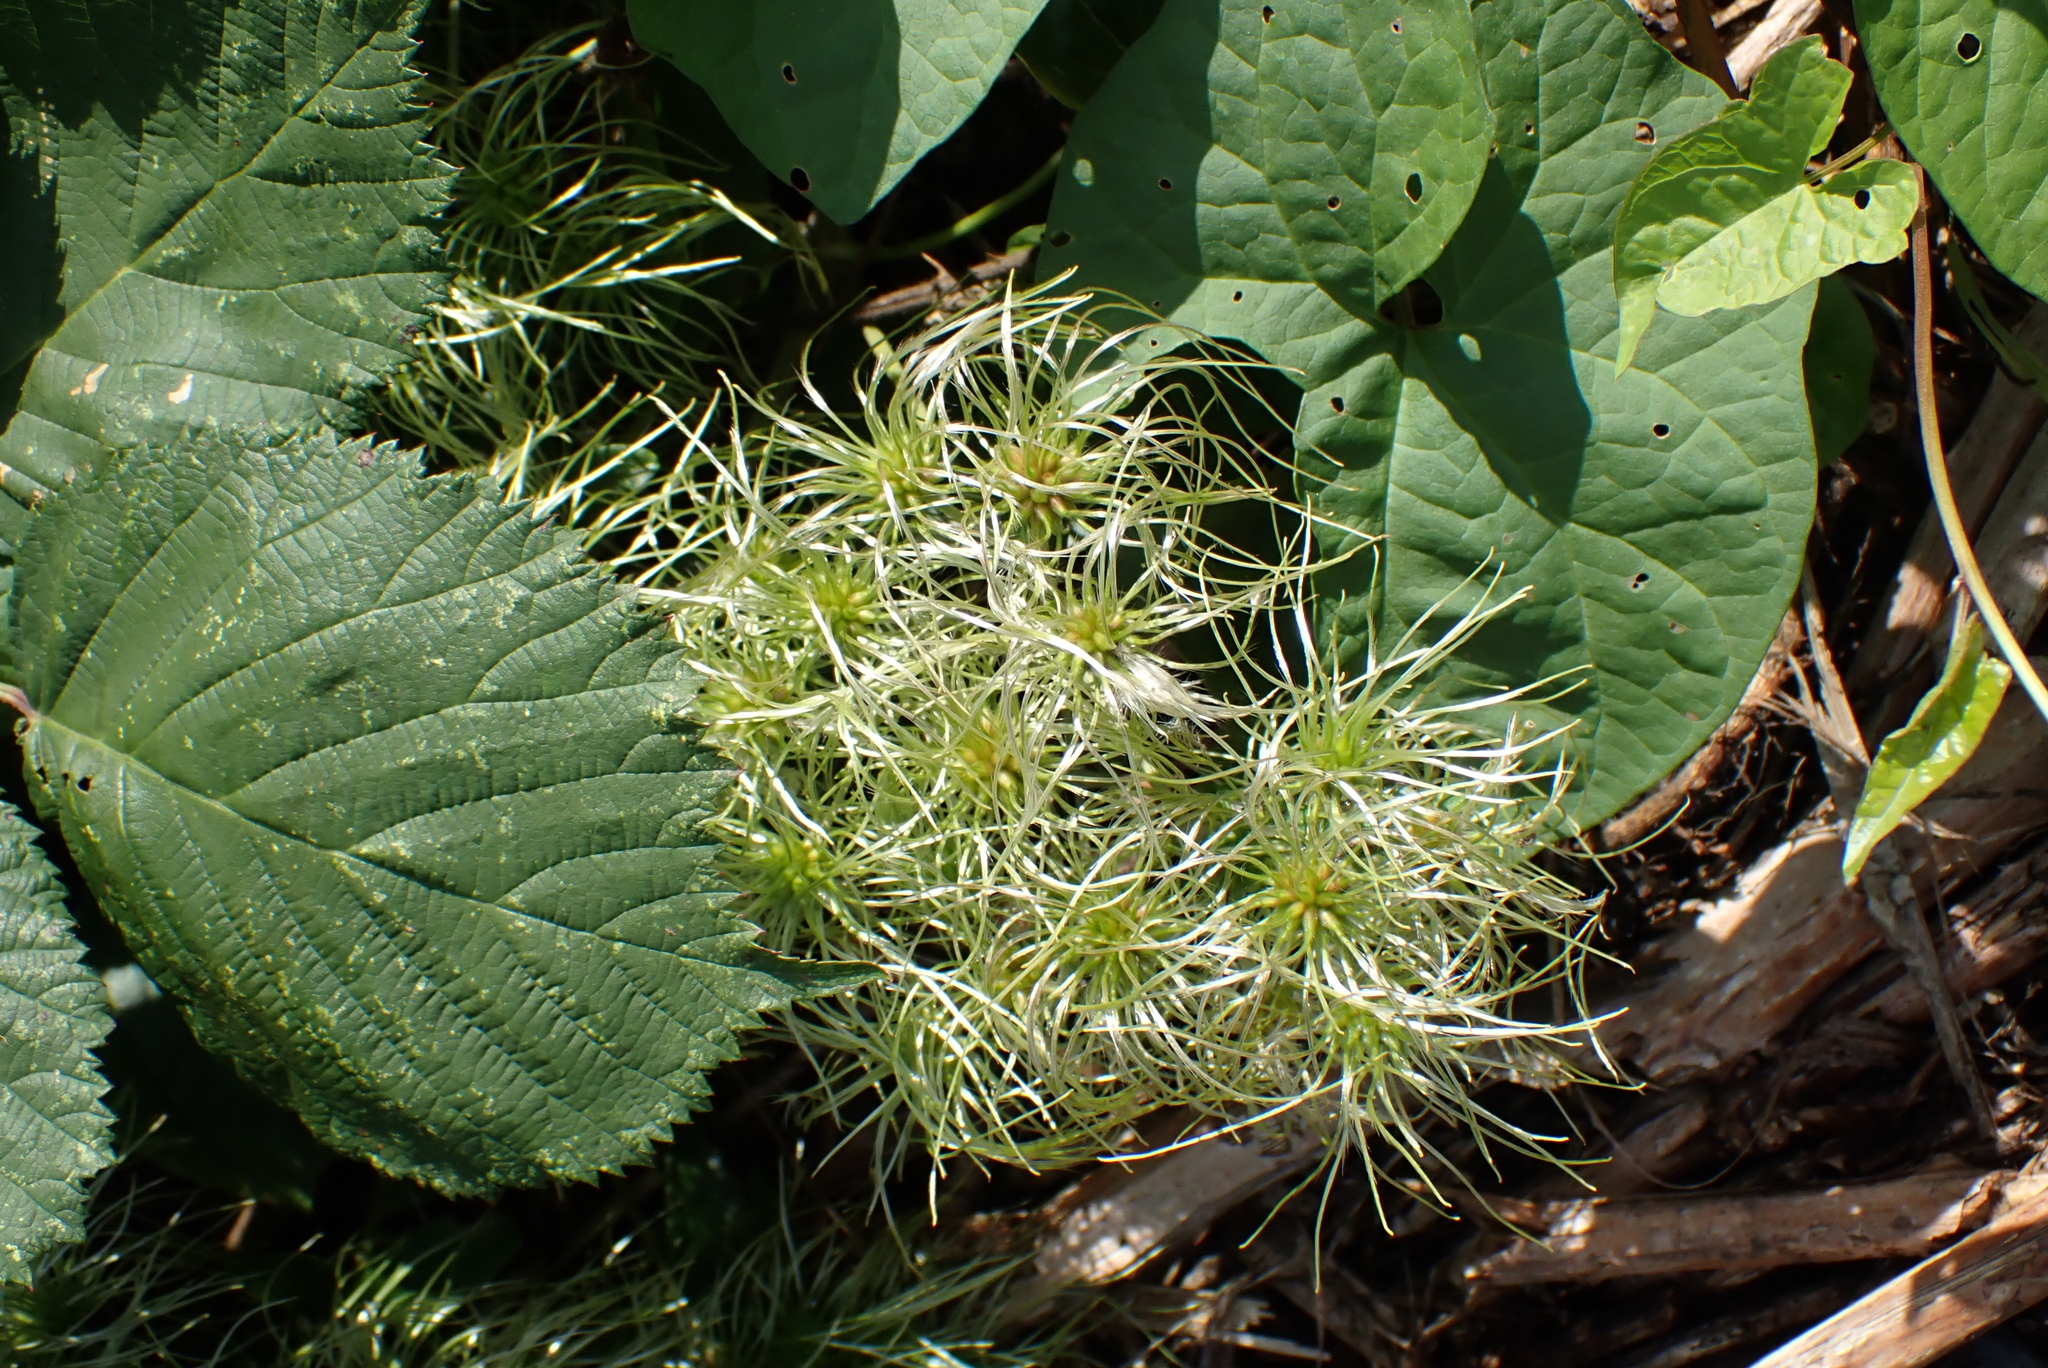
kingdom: Plantae
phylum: Tracheophyta
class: Magnoliopsida
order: Ranunculales
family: Ranunculaceae
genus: Clematis
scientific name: Clematis vitalba
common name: Evergreen clematis
